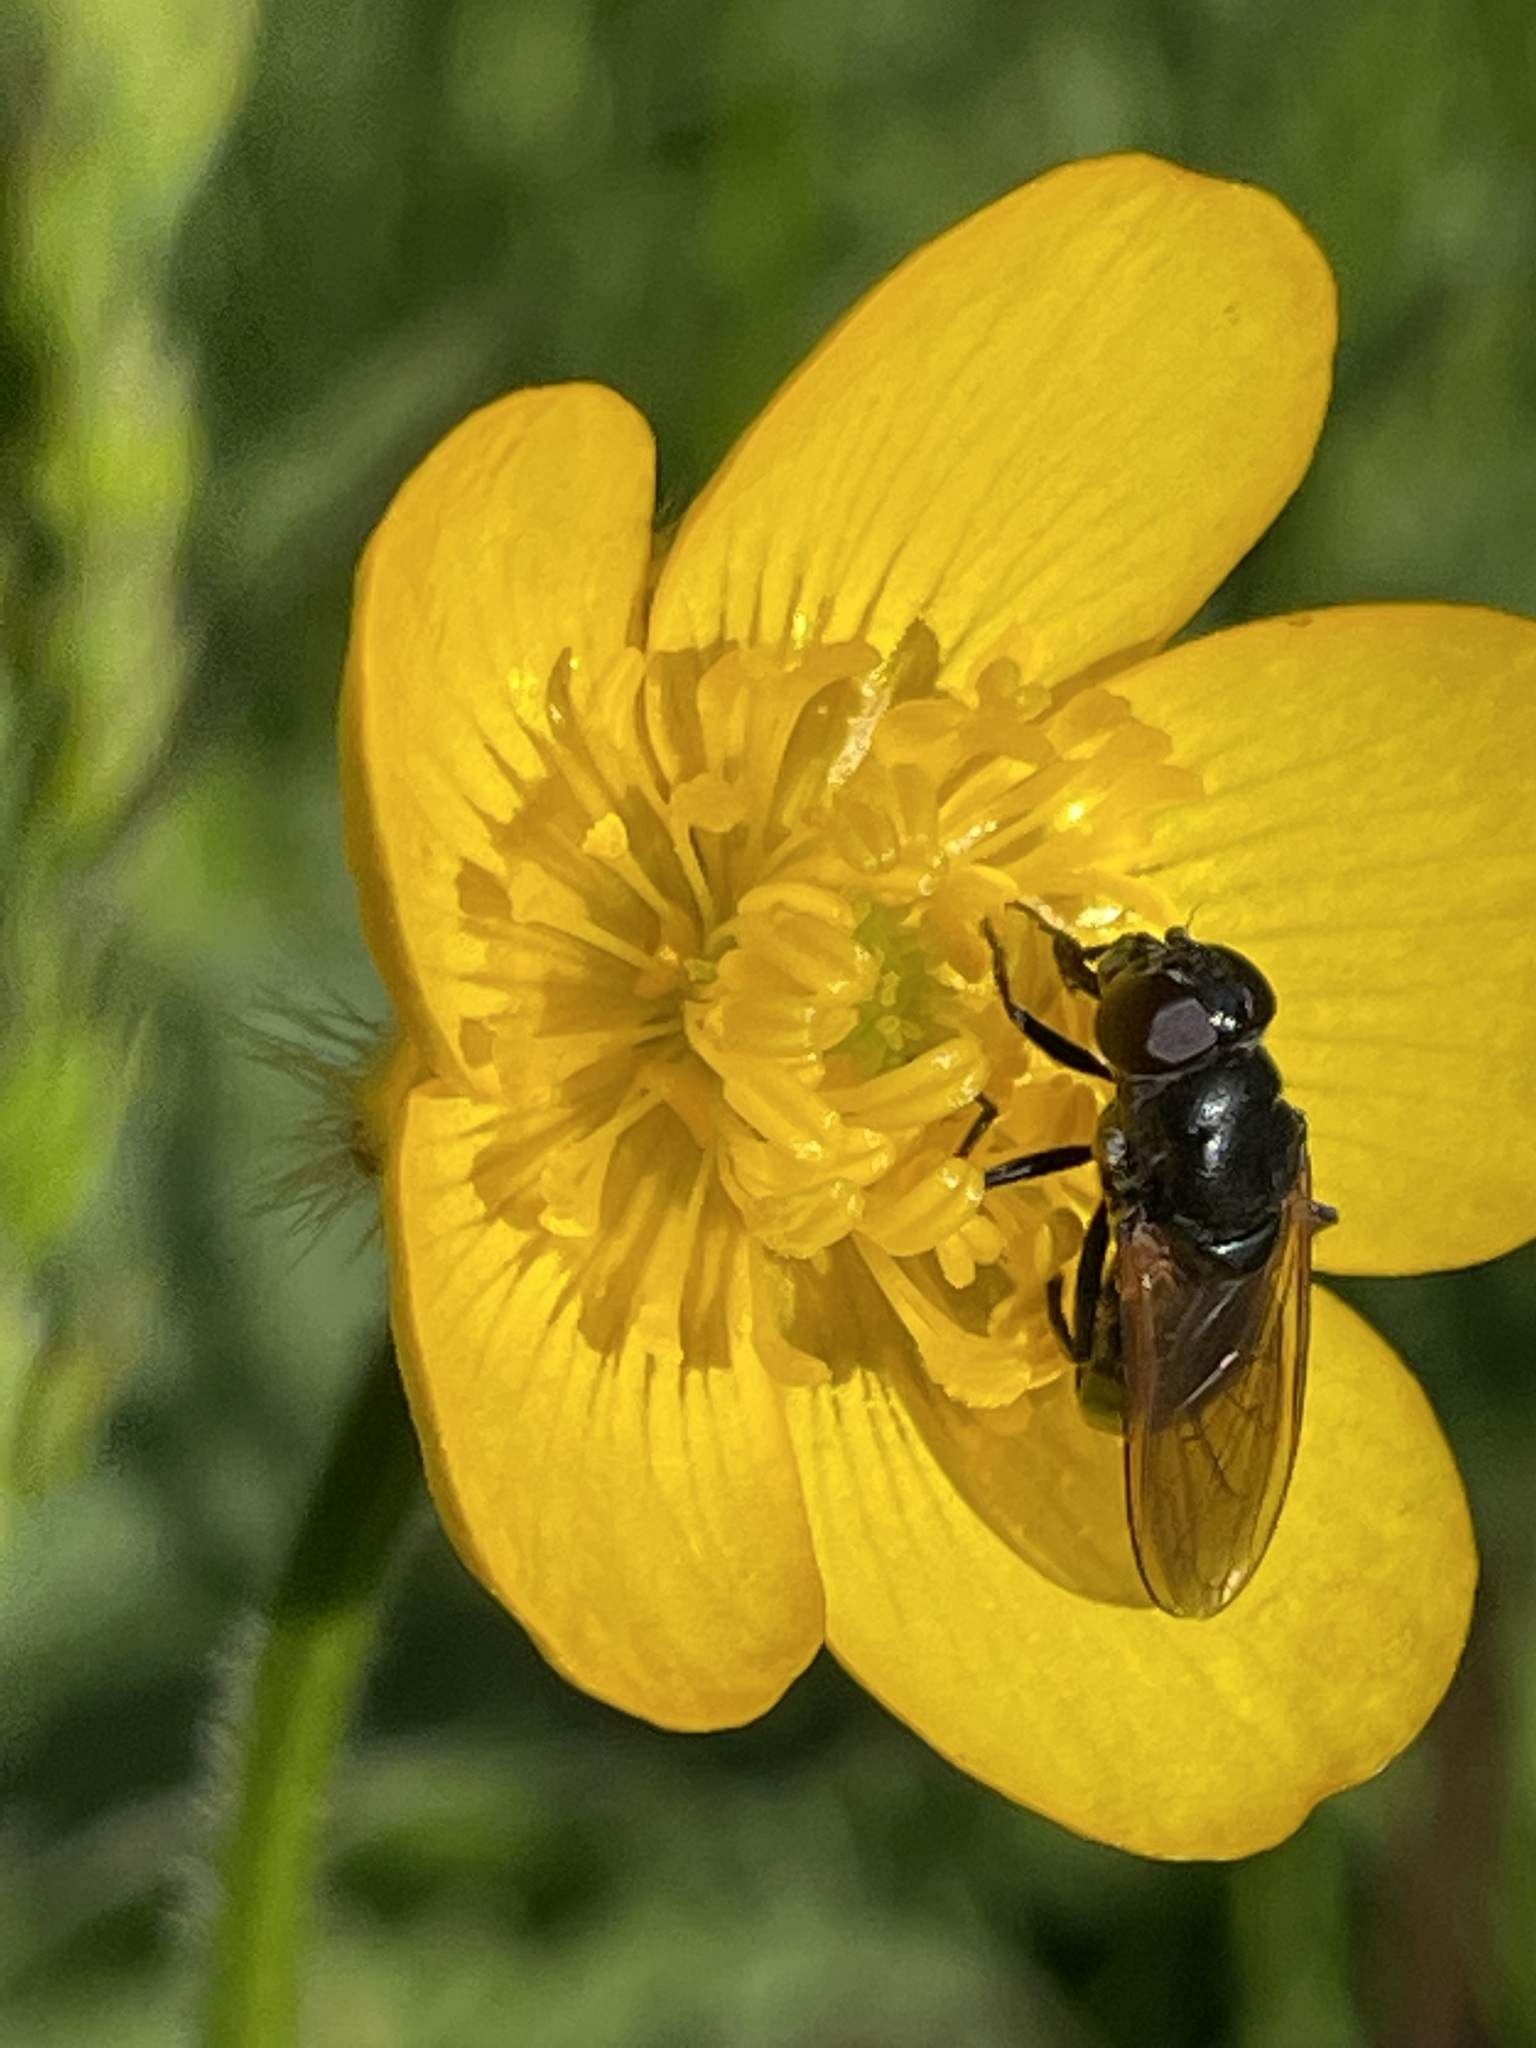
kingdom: Animalia
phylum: Arthropoda
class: Insecta
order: Diptera
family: Syrphidae
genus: Cheilosia
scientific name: Cheilosia pagana
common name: Hover fly
